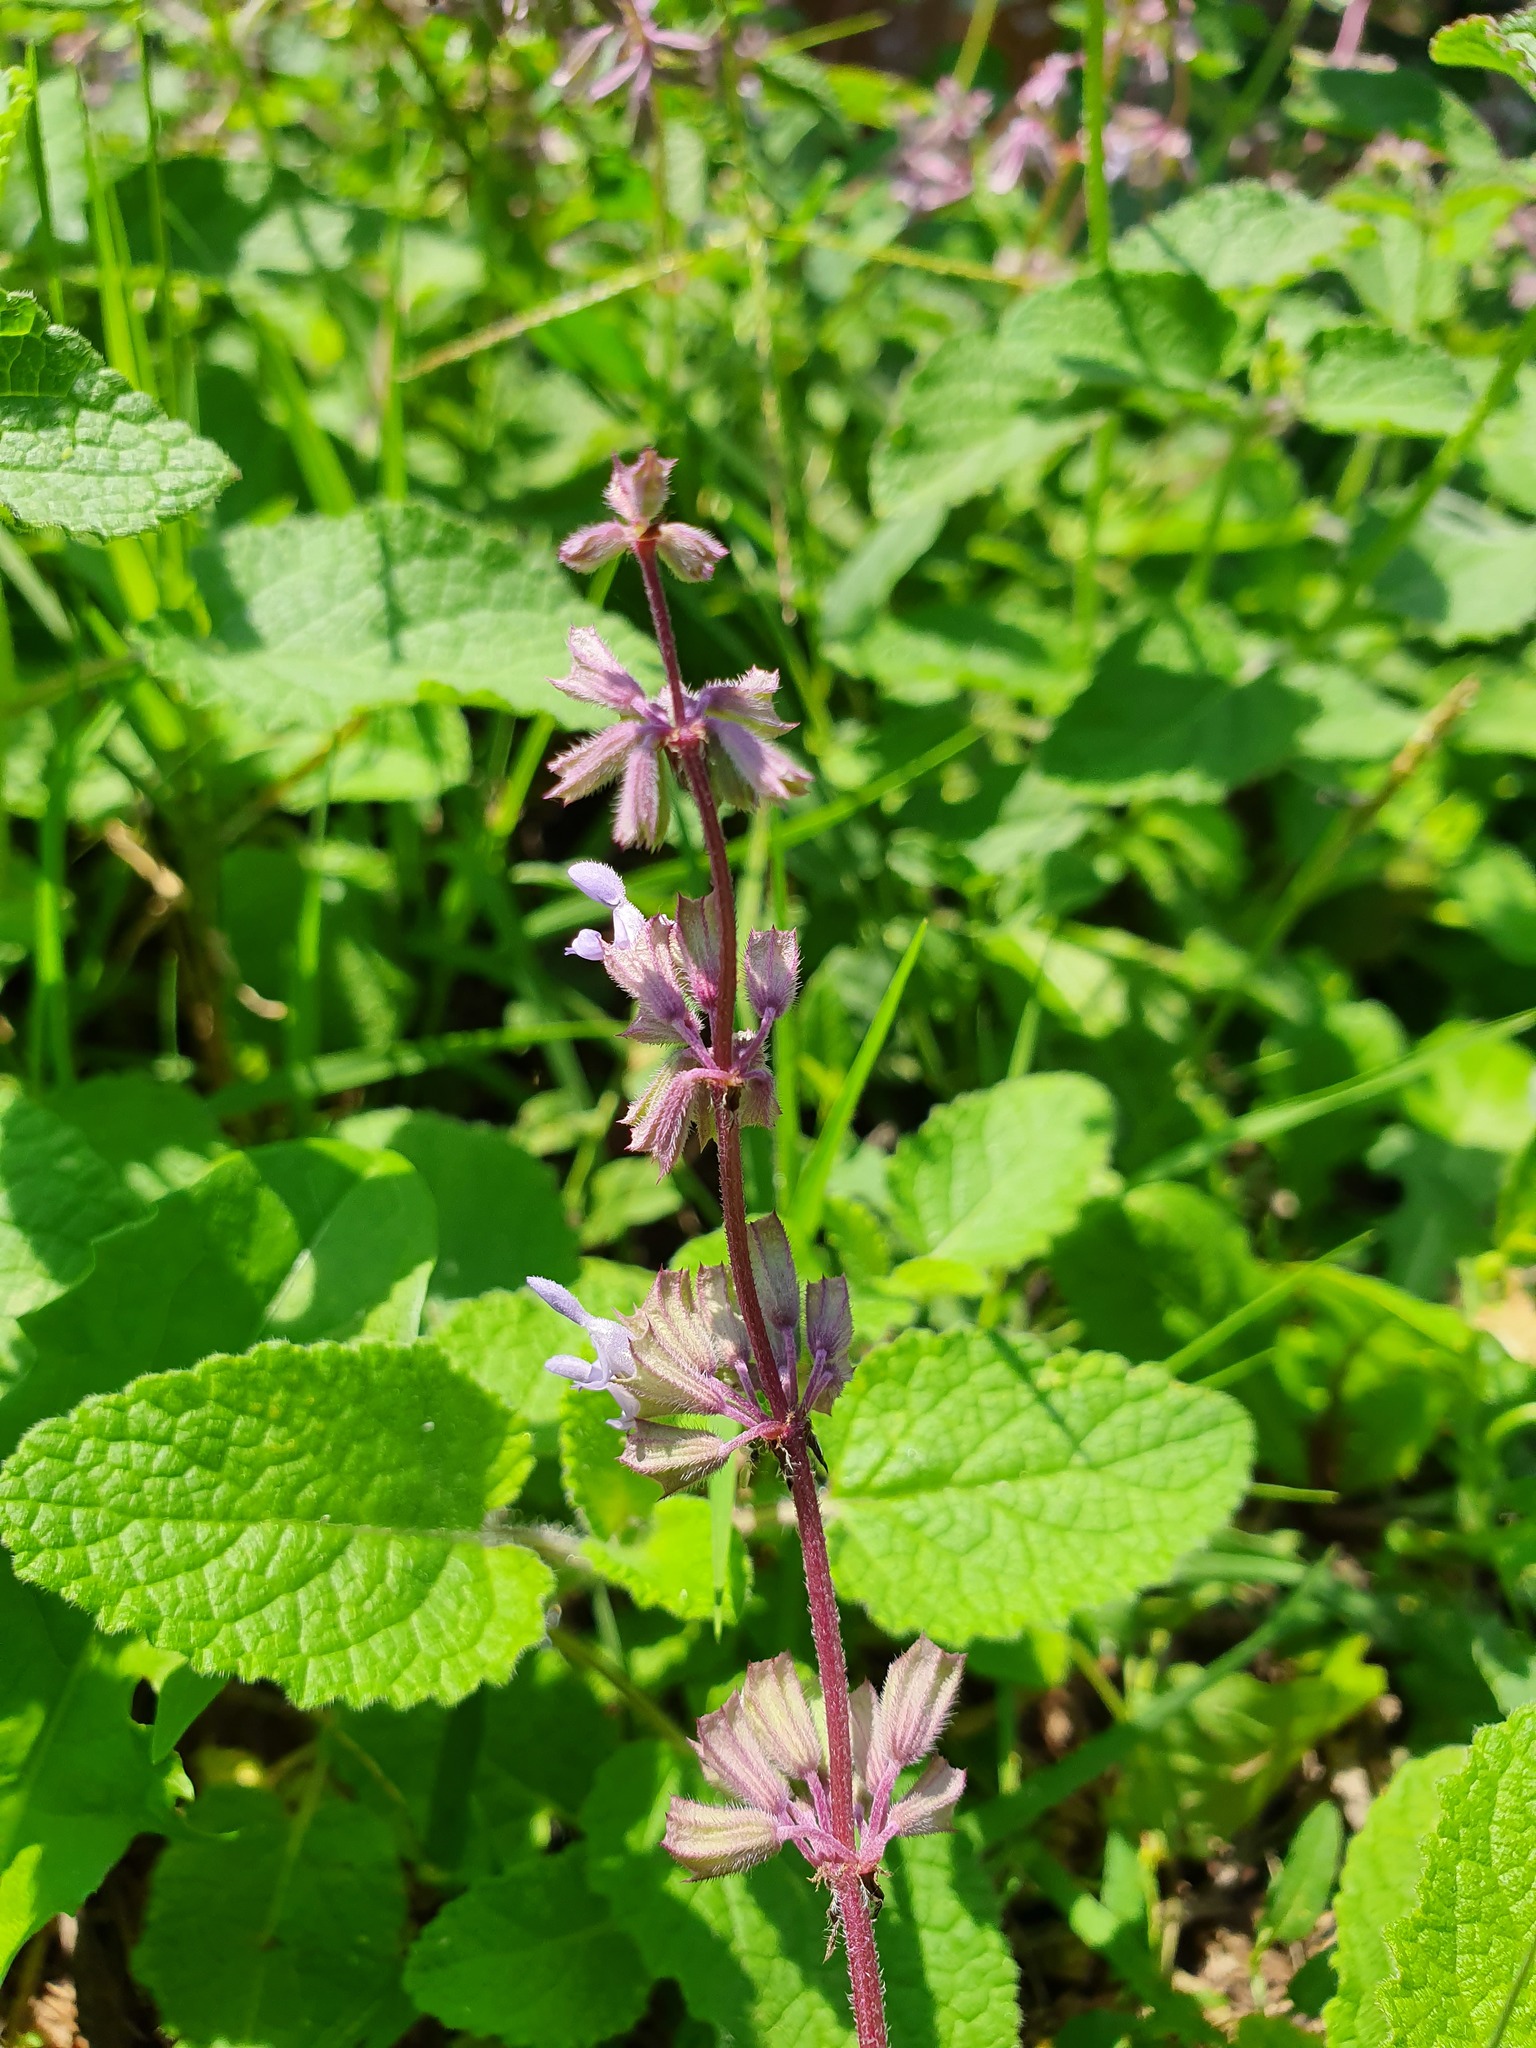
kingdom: Plantae
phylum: Tracheophyta
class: Magnoliopsida
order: Lamiales
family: Lamiaceae
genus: Salvia
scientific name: Salvia verticillata
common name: Whorled clary
